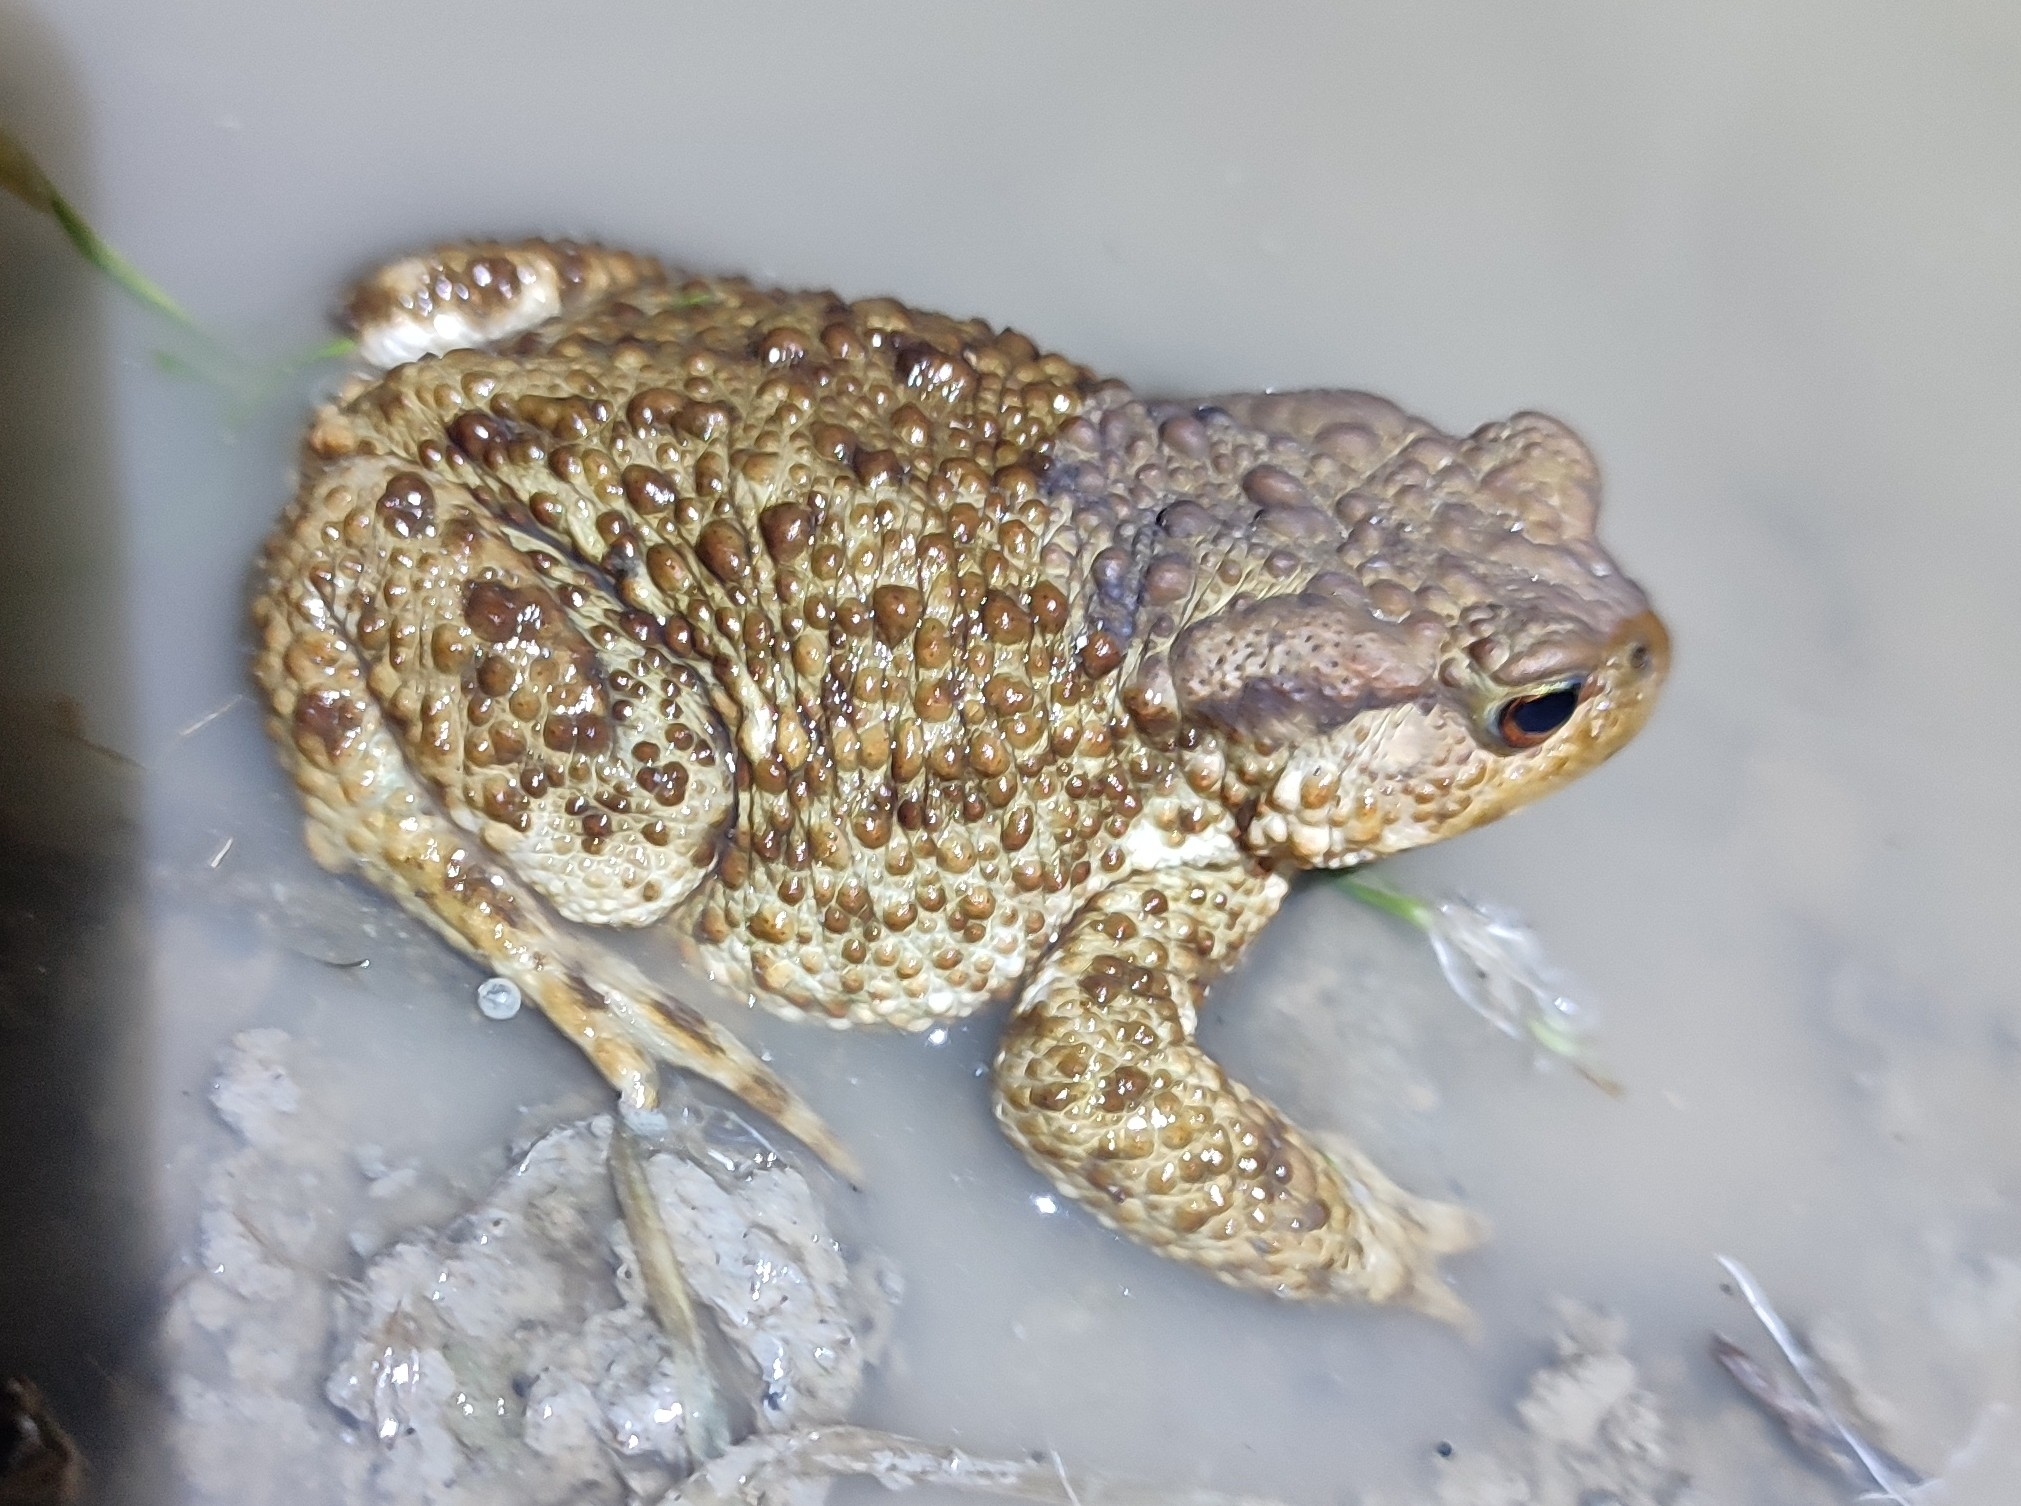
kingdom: Animalia
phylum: Chordata
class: Amphibia
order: Anura
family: Bufonidae
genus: Bufo
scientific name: Bufo bufo
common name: Common toad
